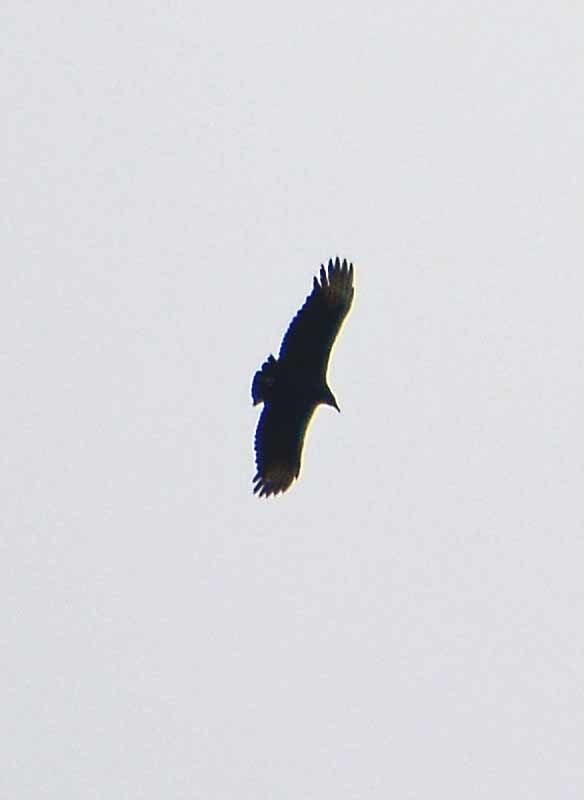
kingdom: Animalia
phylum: Chordata
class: Aves
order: Accipitriformes
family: Cathartidae
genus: Coragyps
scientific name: Coragyps atratus
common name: Black vulture
